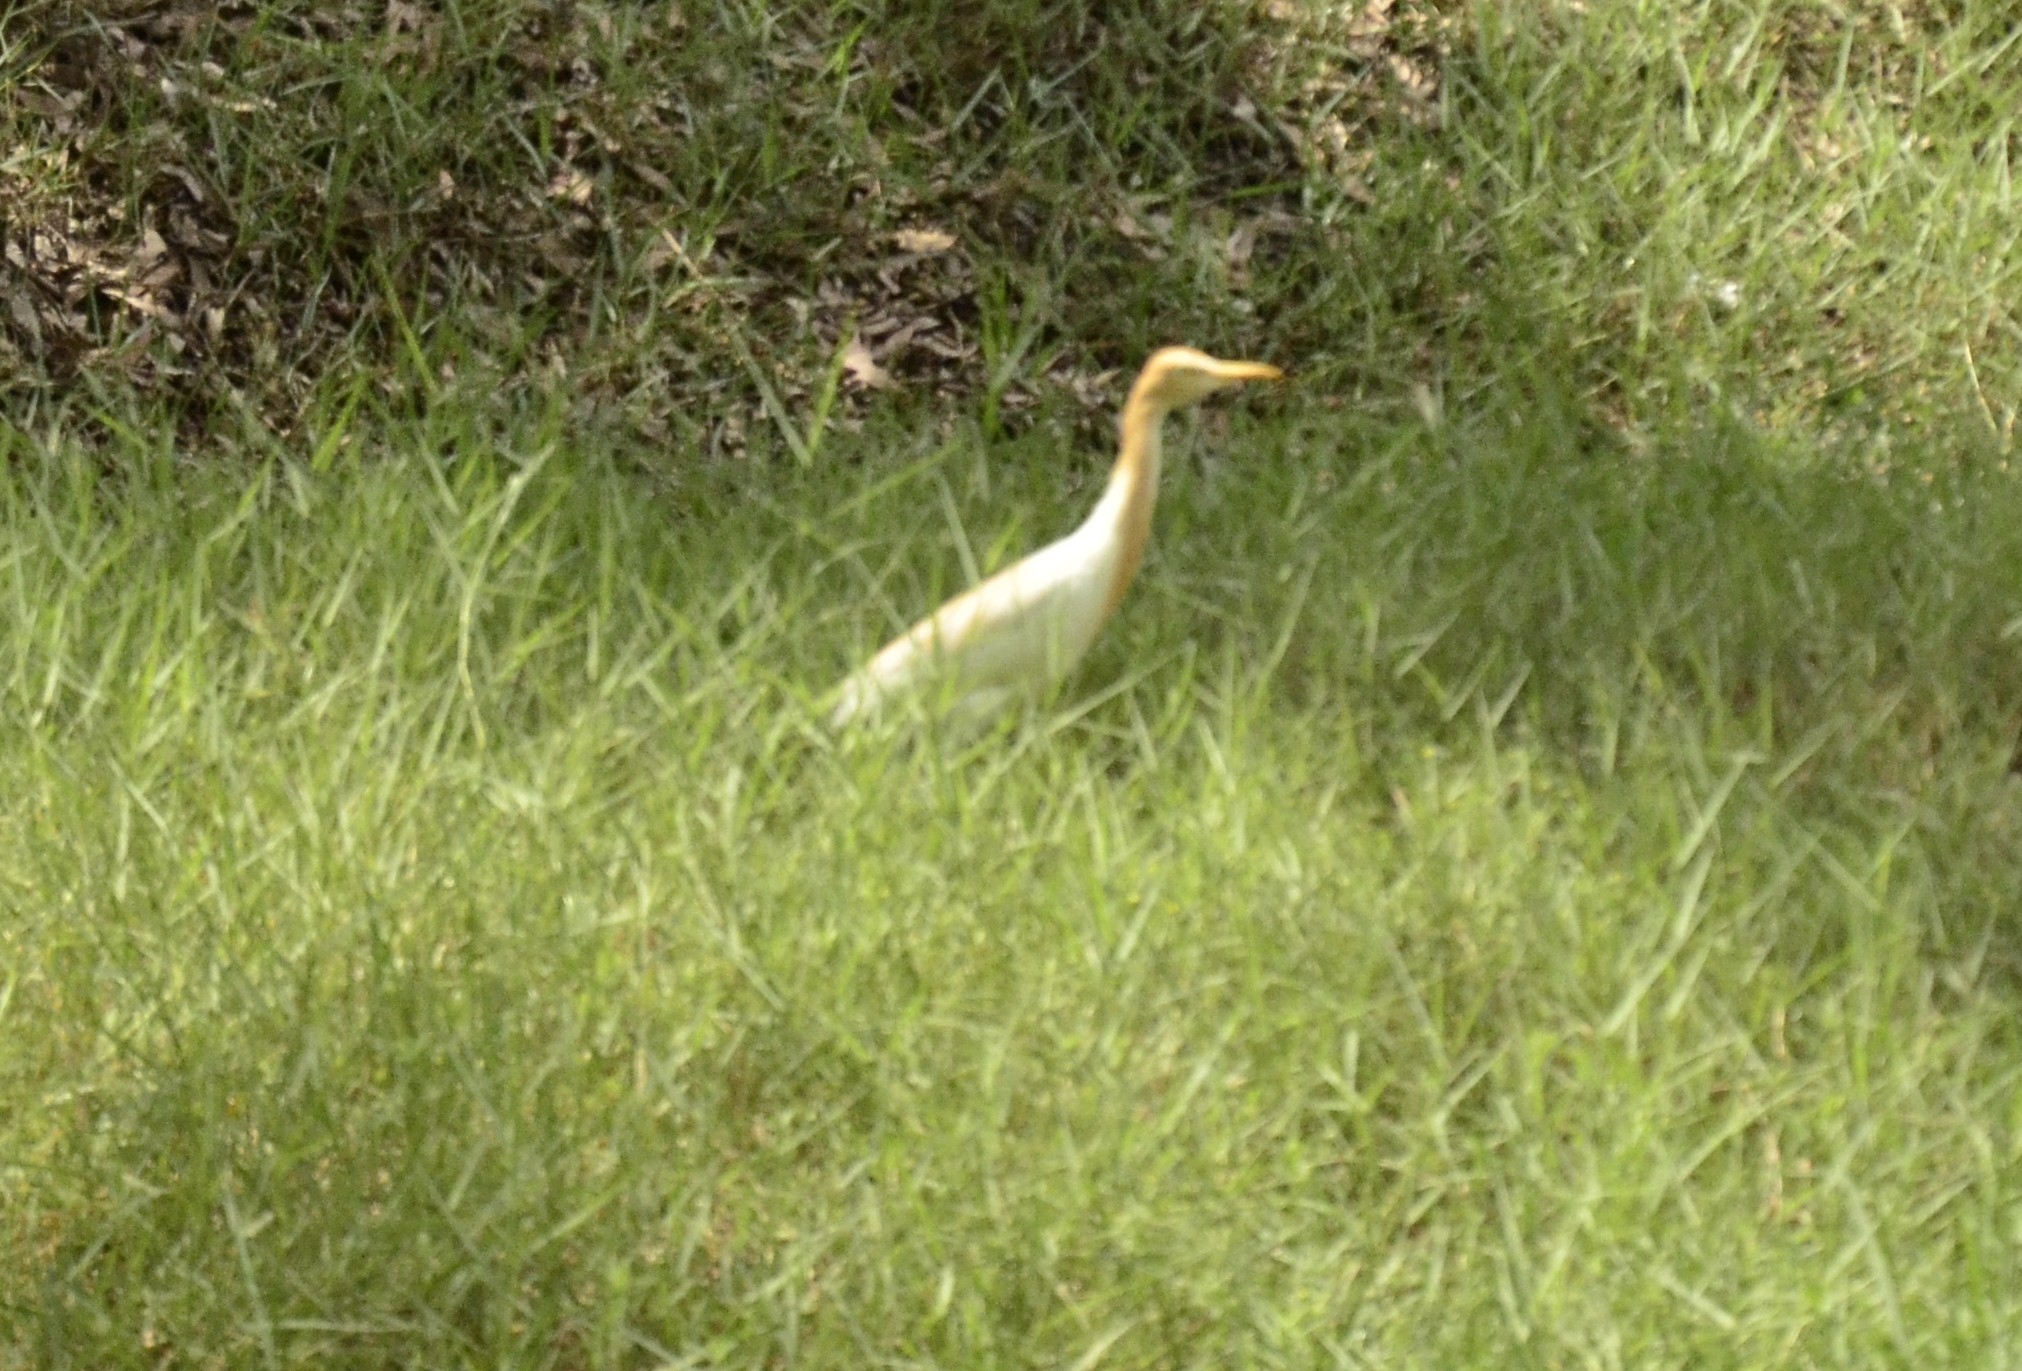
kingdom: Animalia
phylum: Chordata
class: Aves
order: Pelecaniformes
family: Ardeidae
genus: Bubulcus
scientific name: Bubulcus coromandus
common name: Eastern cattle egret
